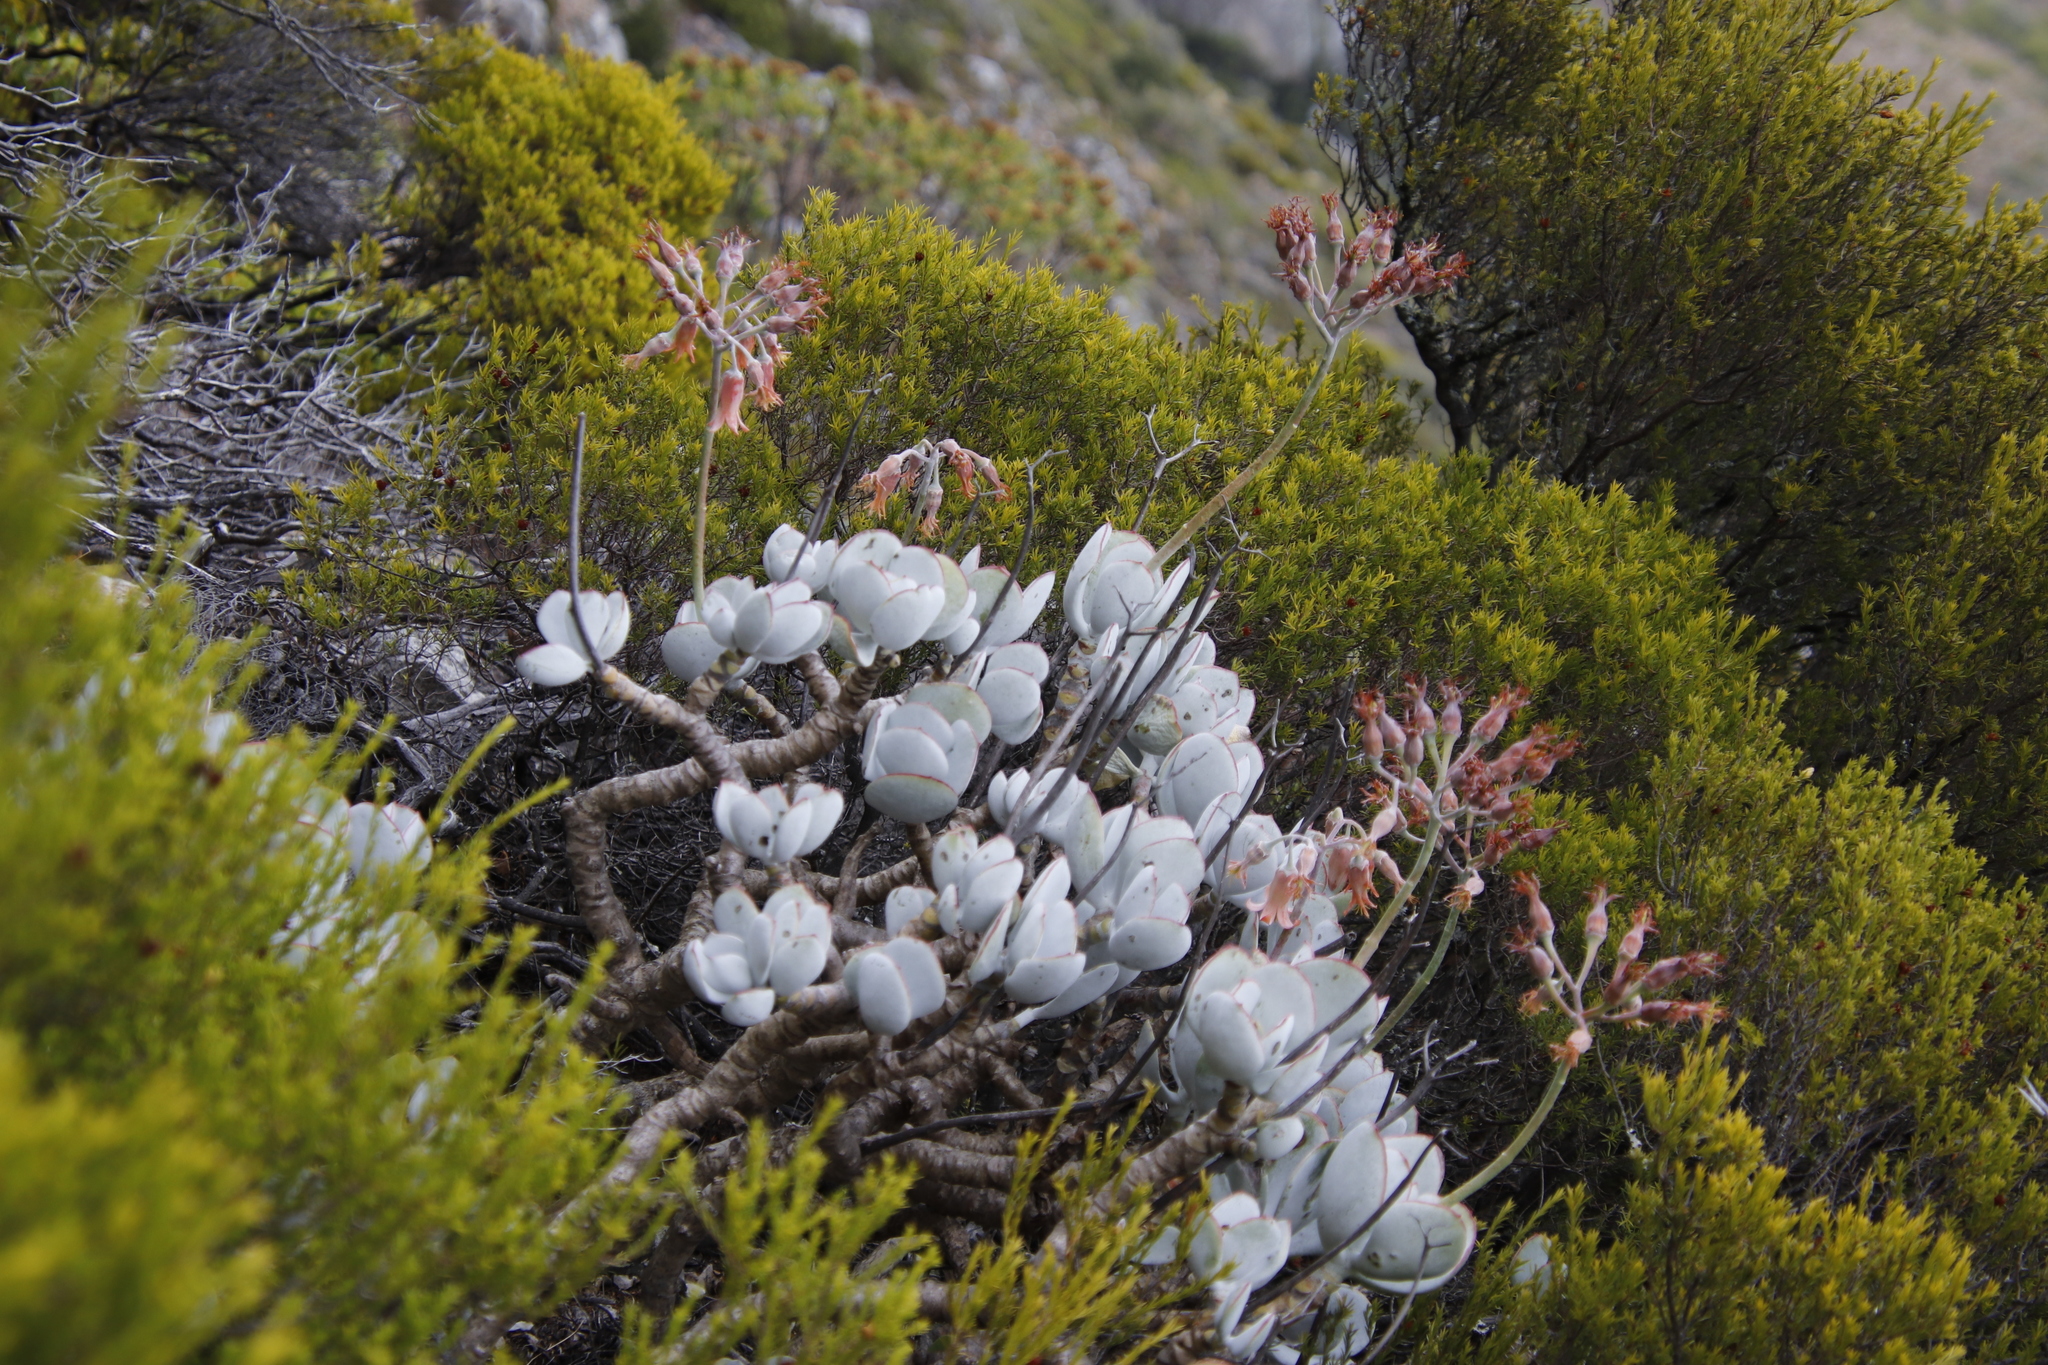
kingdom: Plantae
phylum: Tracheophyta
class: Magnoliopsida
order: Saxifragales
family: Crassulaceae
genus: Cotyledon
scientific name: Cotyledon orbiculata
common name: Pig's ear
